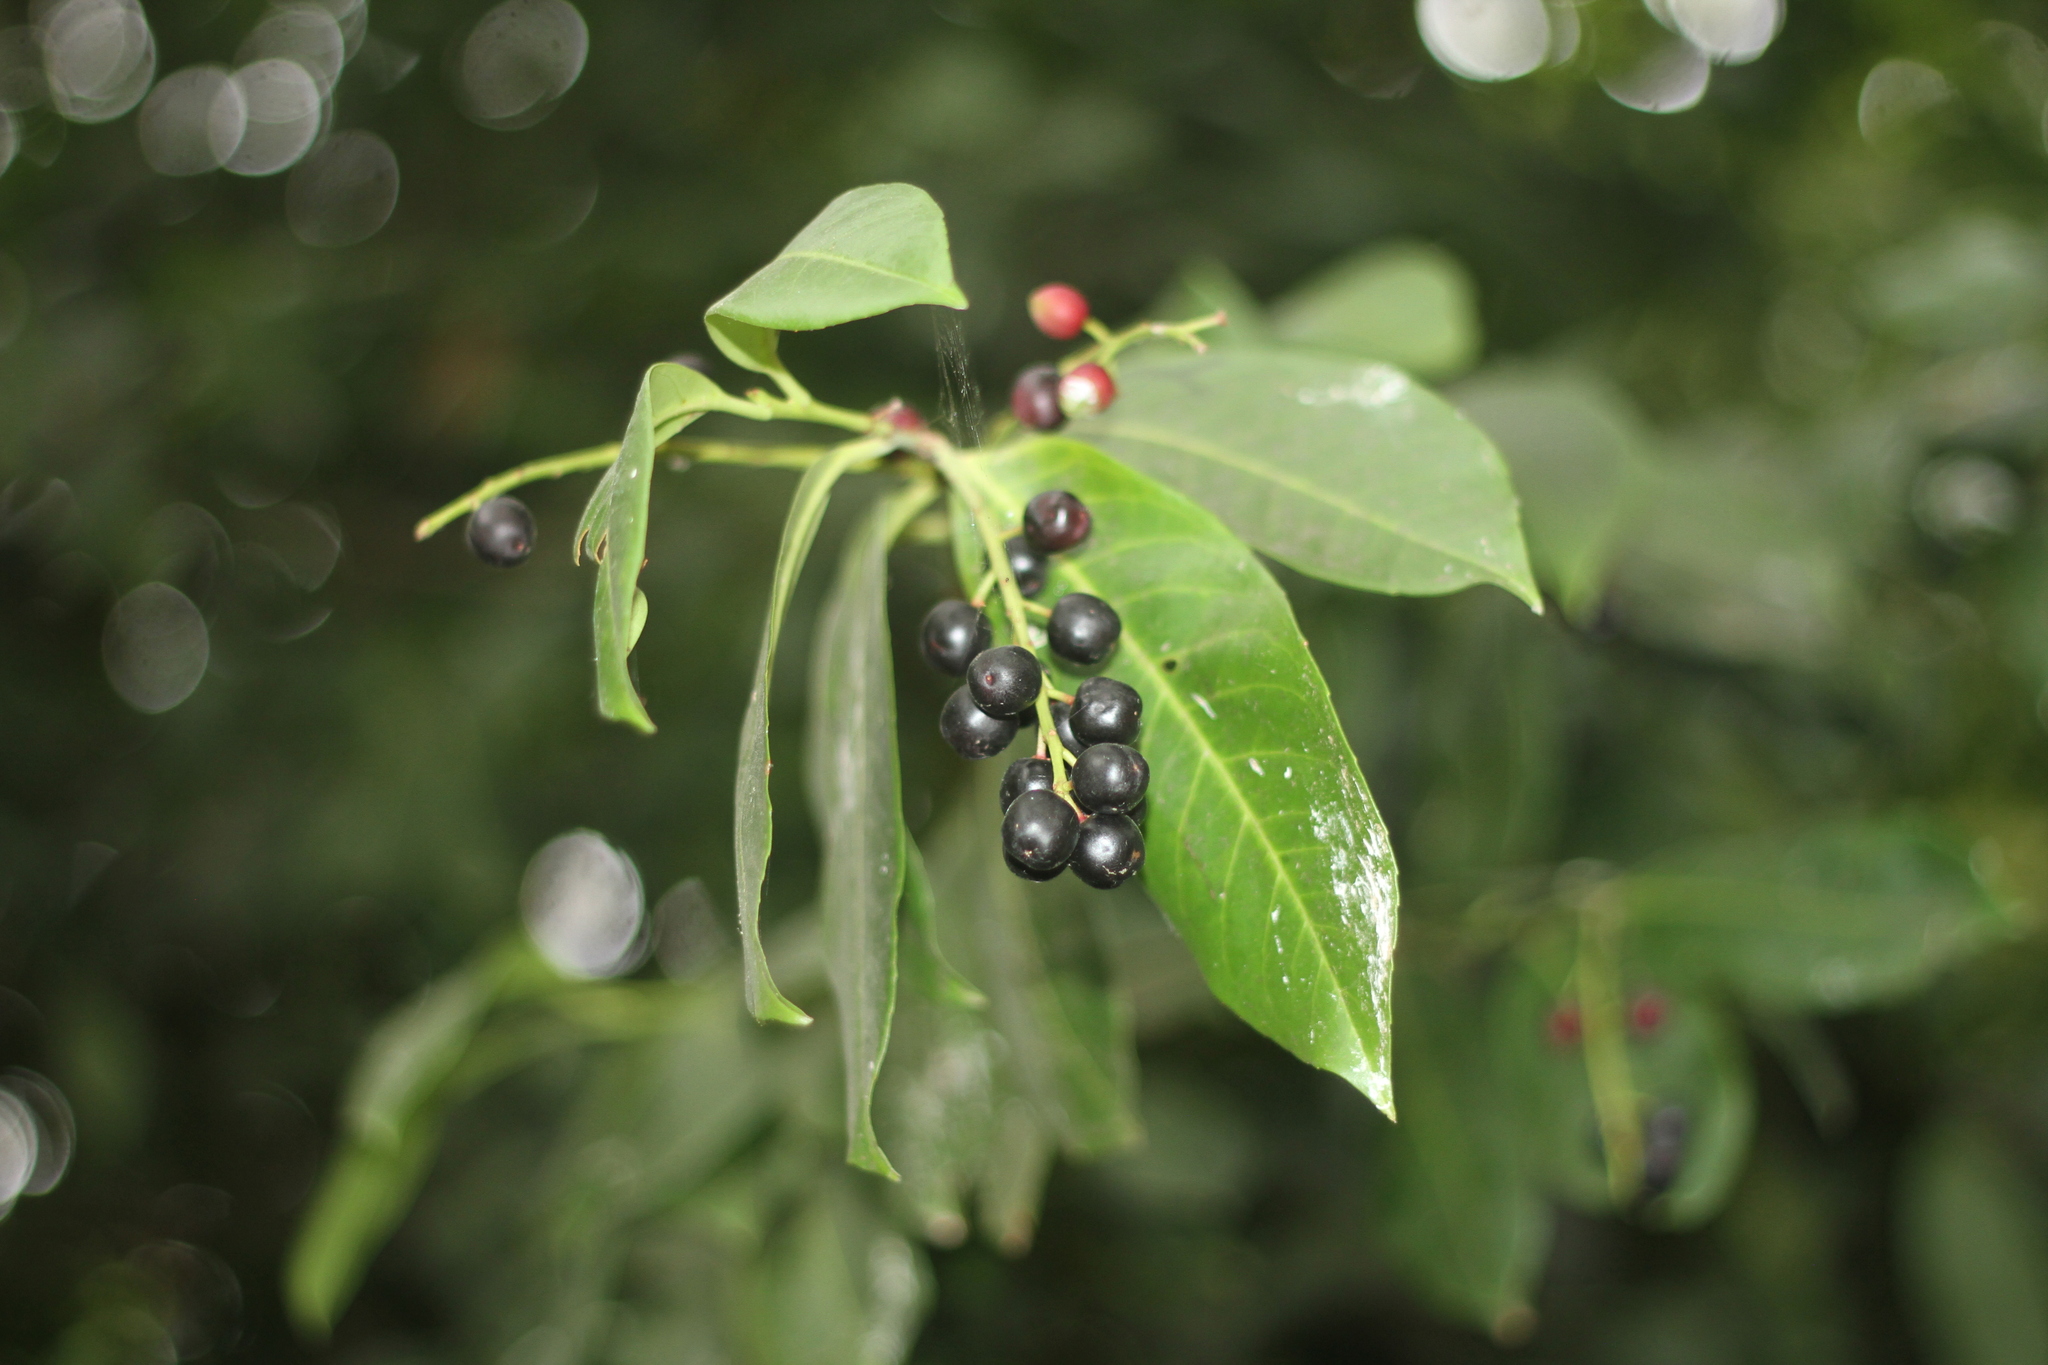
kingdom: Plantae
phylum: Tracheophyta
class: Magnoliopsida
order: Rosales
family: Rosaceae
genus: Prunus
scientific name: Prunus laurocerasus
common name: Cherry laurel
